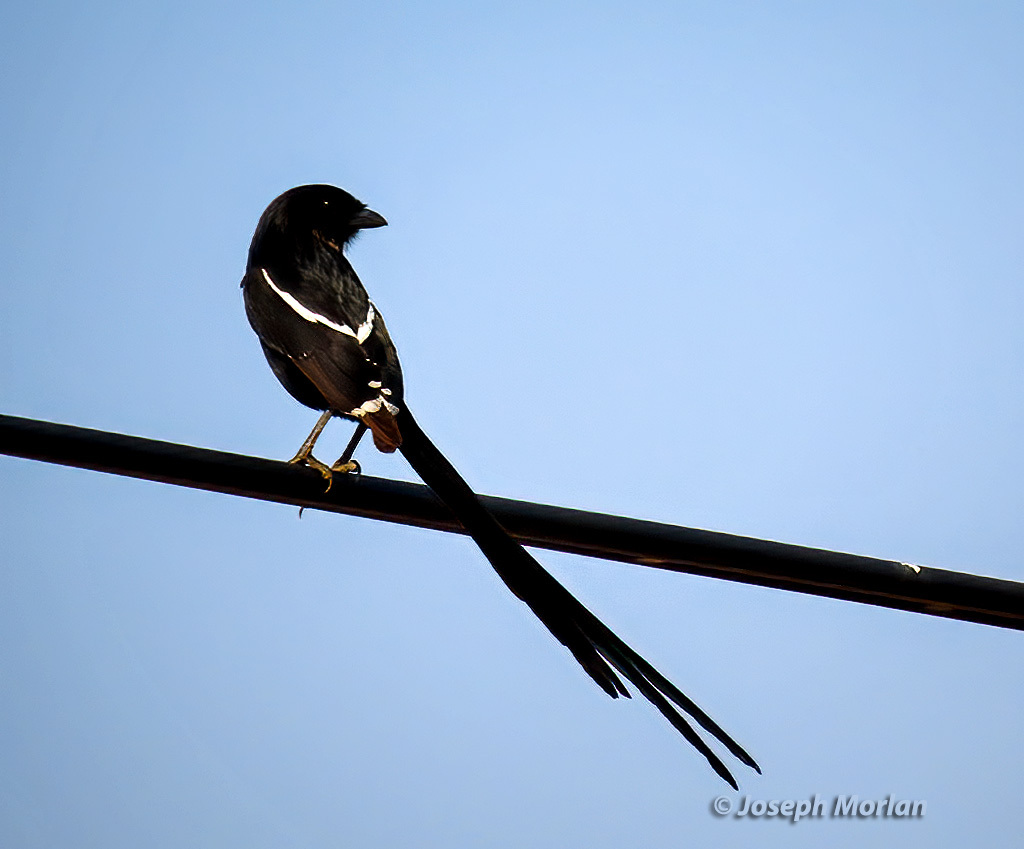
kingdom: Animalia
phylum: Chordata
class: Aves
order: Passeriformes
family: Laniidae
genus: Urolestes
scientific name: Urolestes melanoleucus
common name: Magpie shrike
